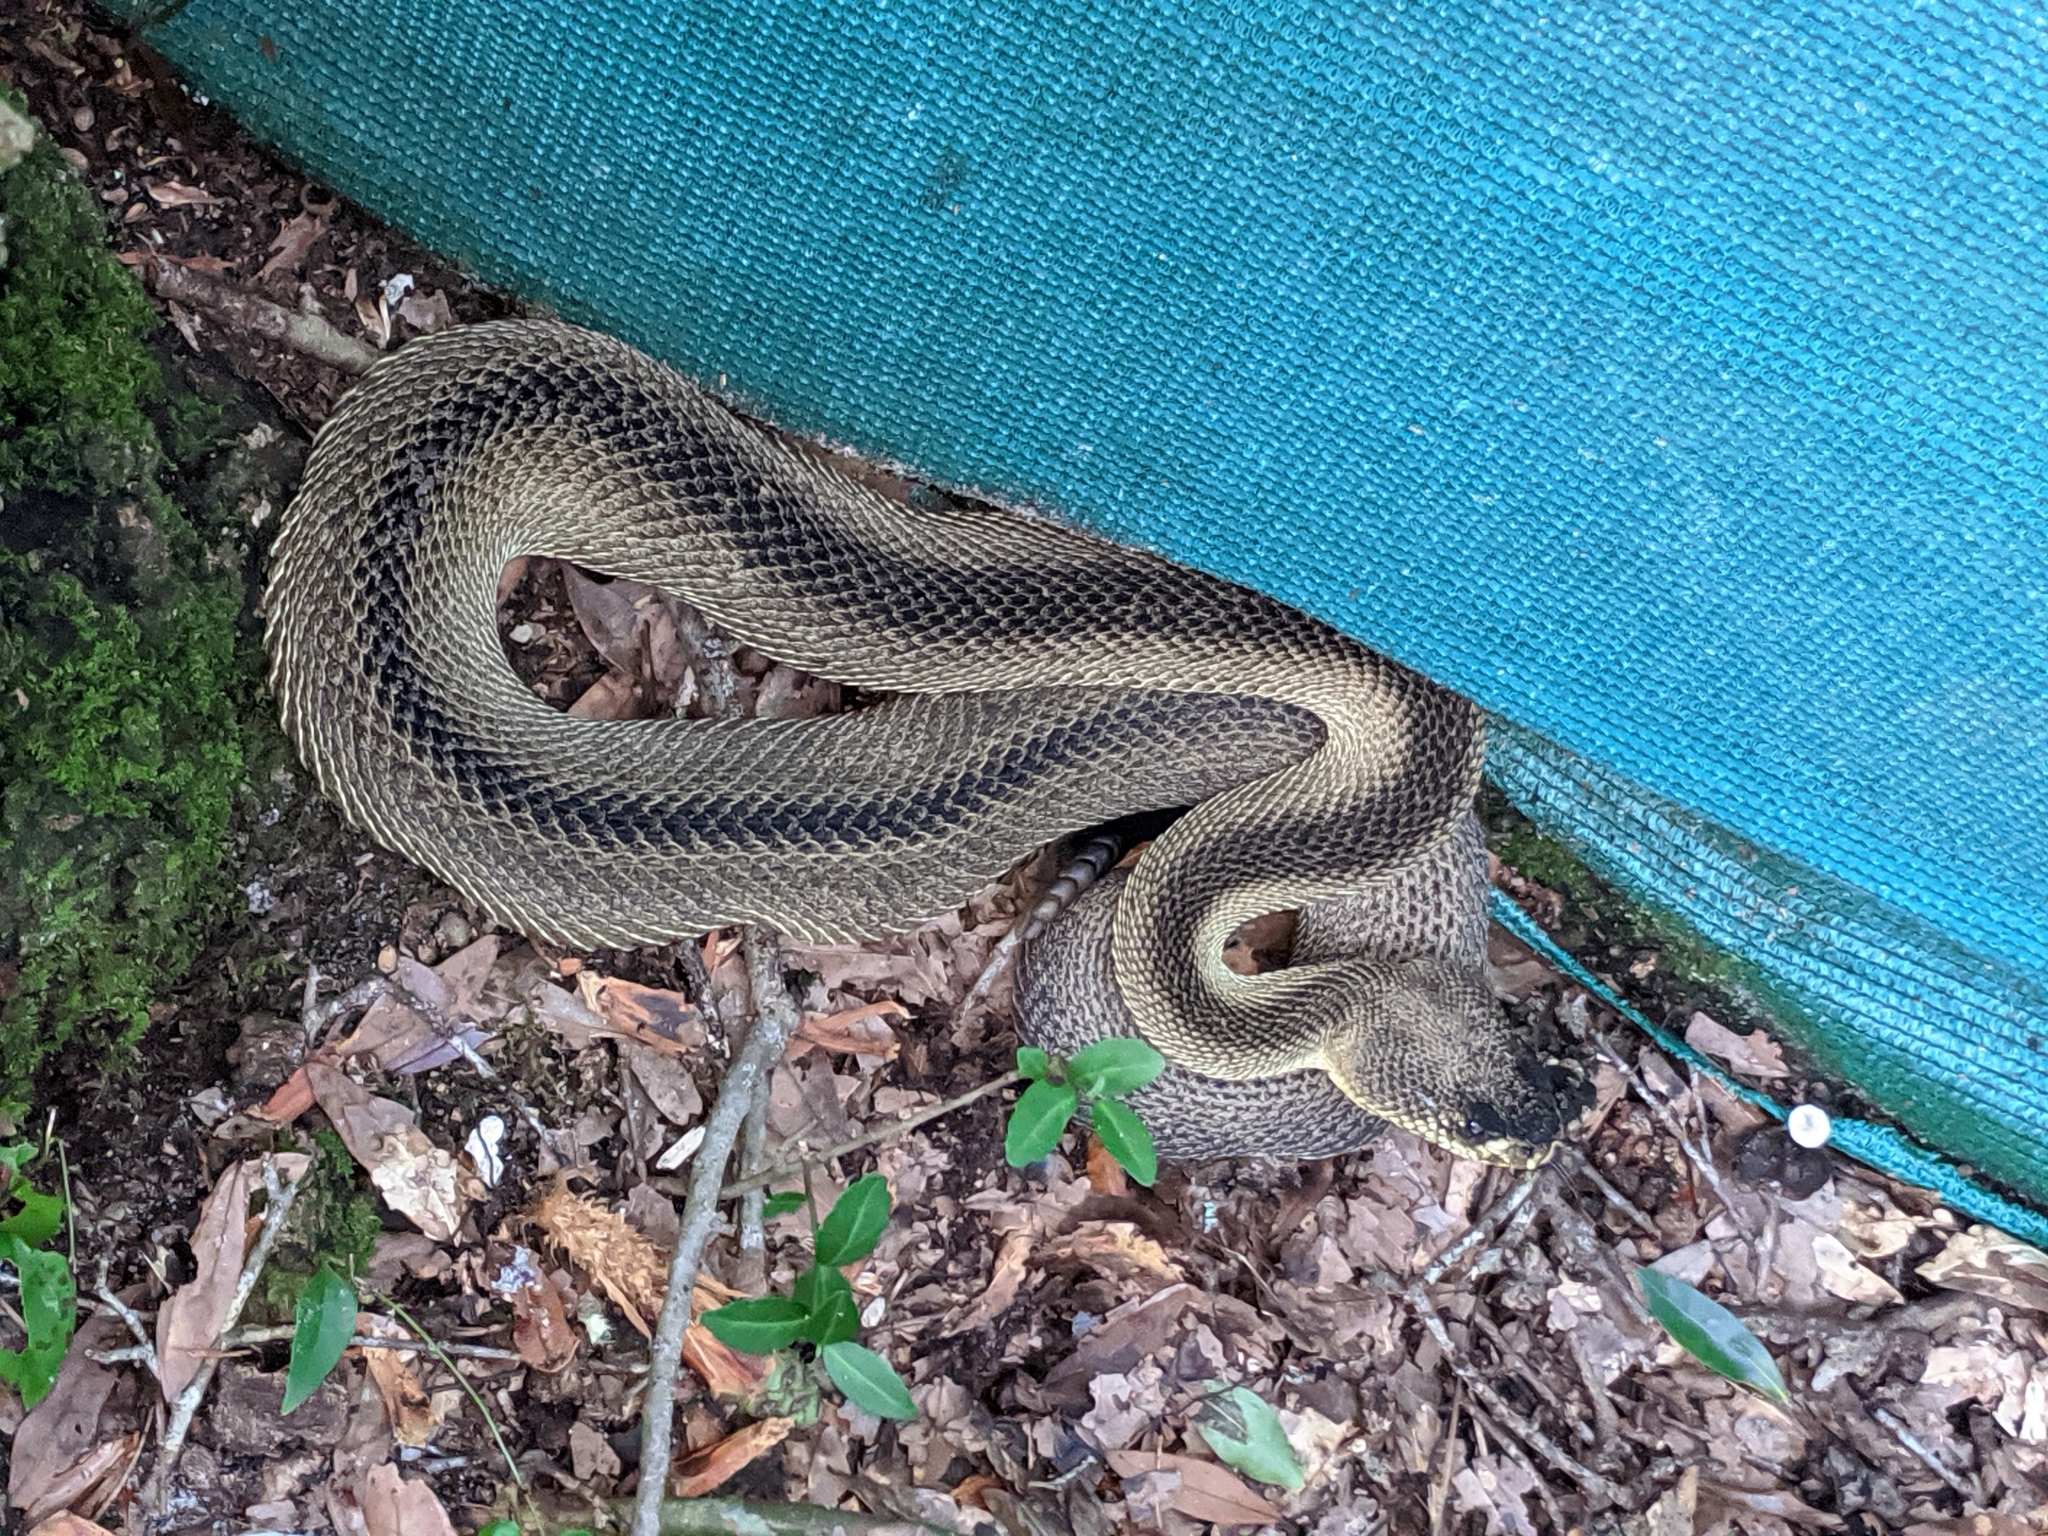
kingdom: Animalia
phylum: Chordata
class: Squamata
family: Viperidae
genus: Crotalus
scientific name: Crotalus adamanteus
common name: Eastern diamondback rattlesnake
